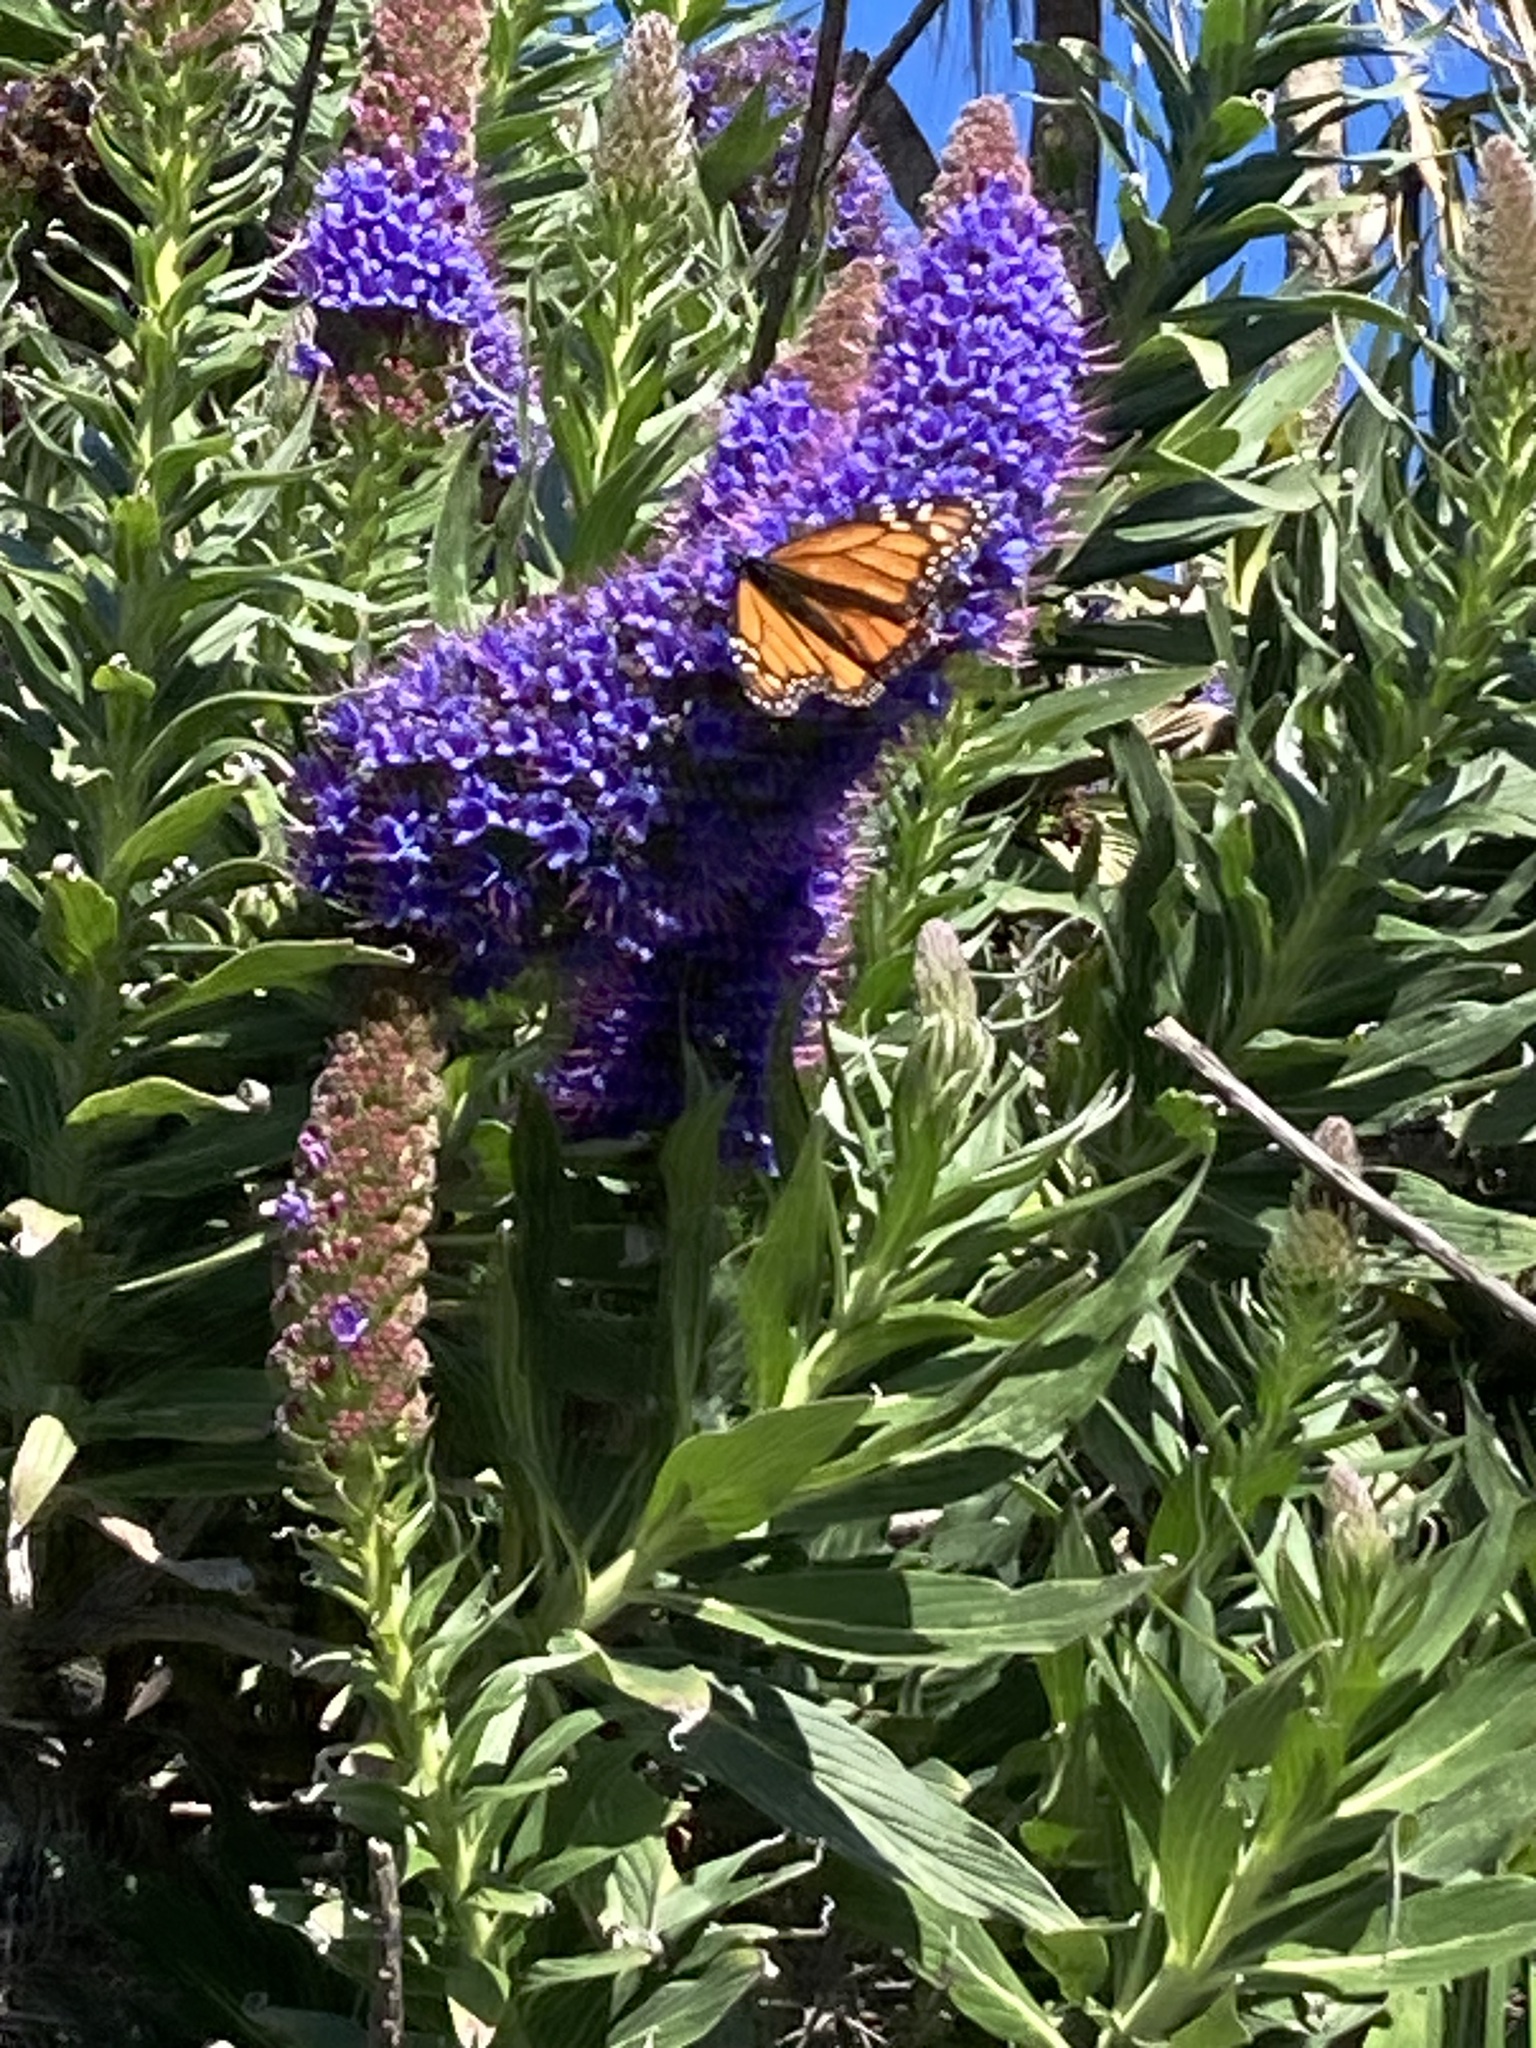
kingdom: Animalia
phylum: Arthropoda
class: Insecta
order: Lepidoptera
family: Nymphalidae
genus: Danaus
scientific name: Danaus plexippus
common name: Monarch
